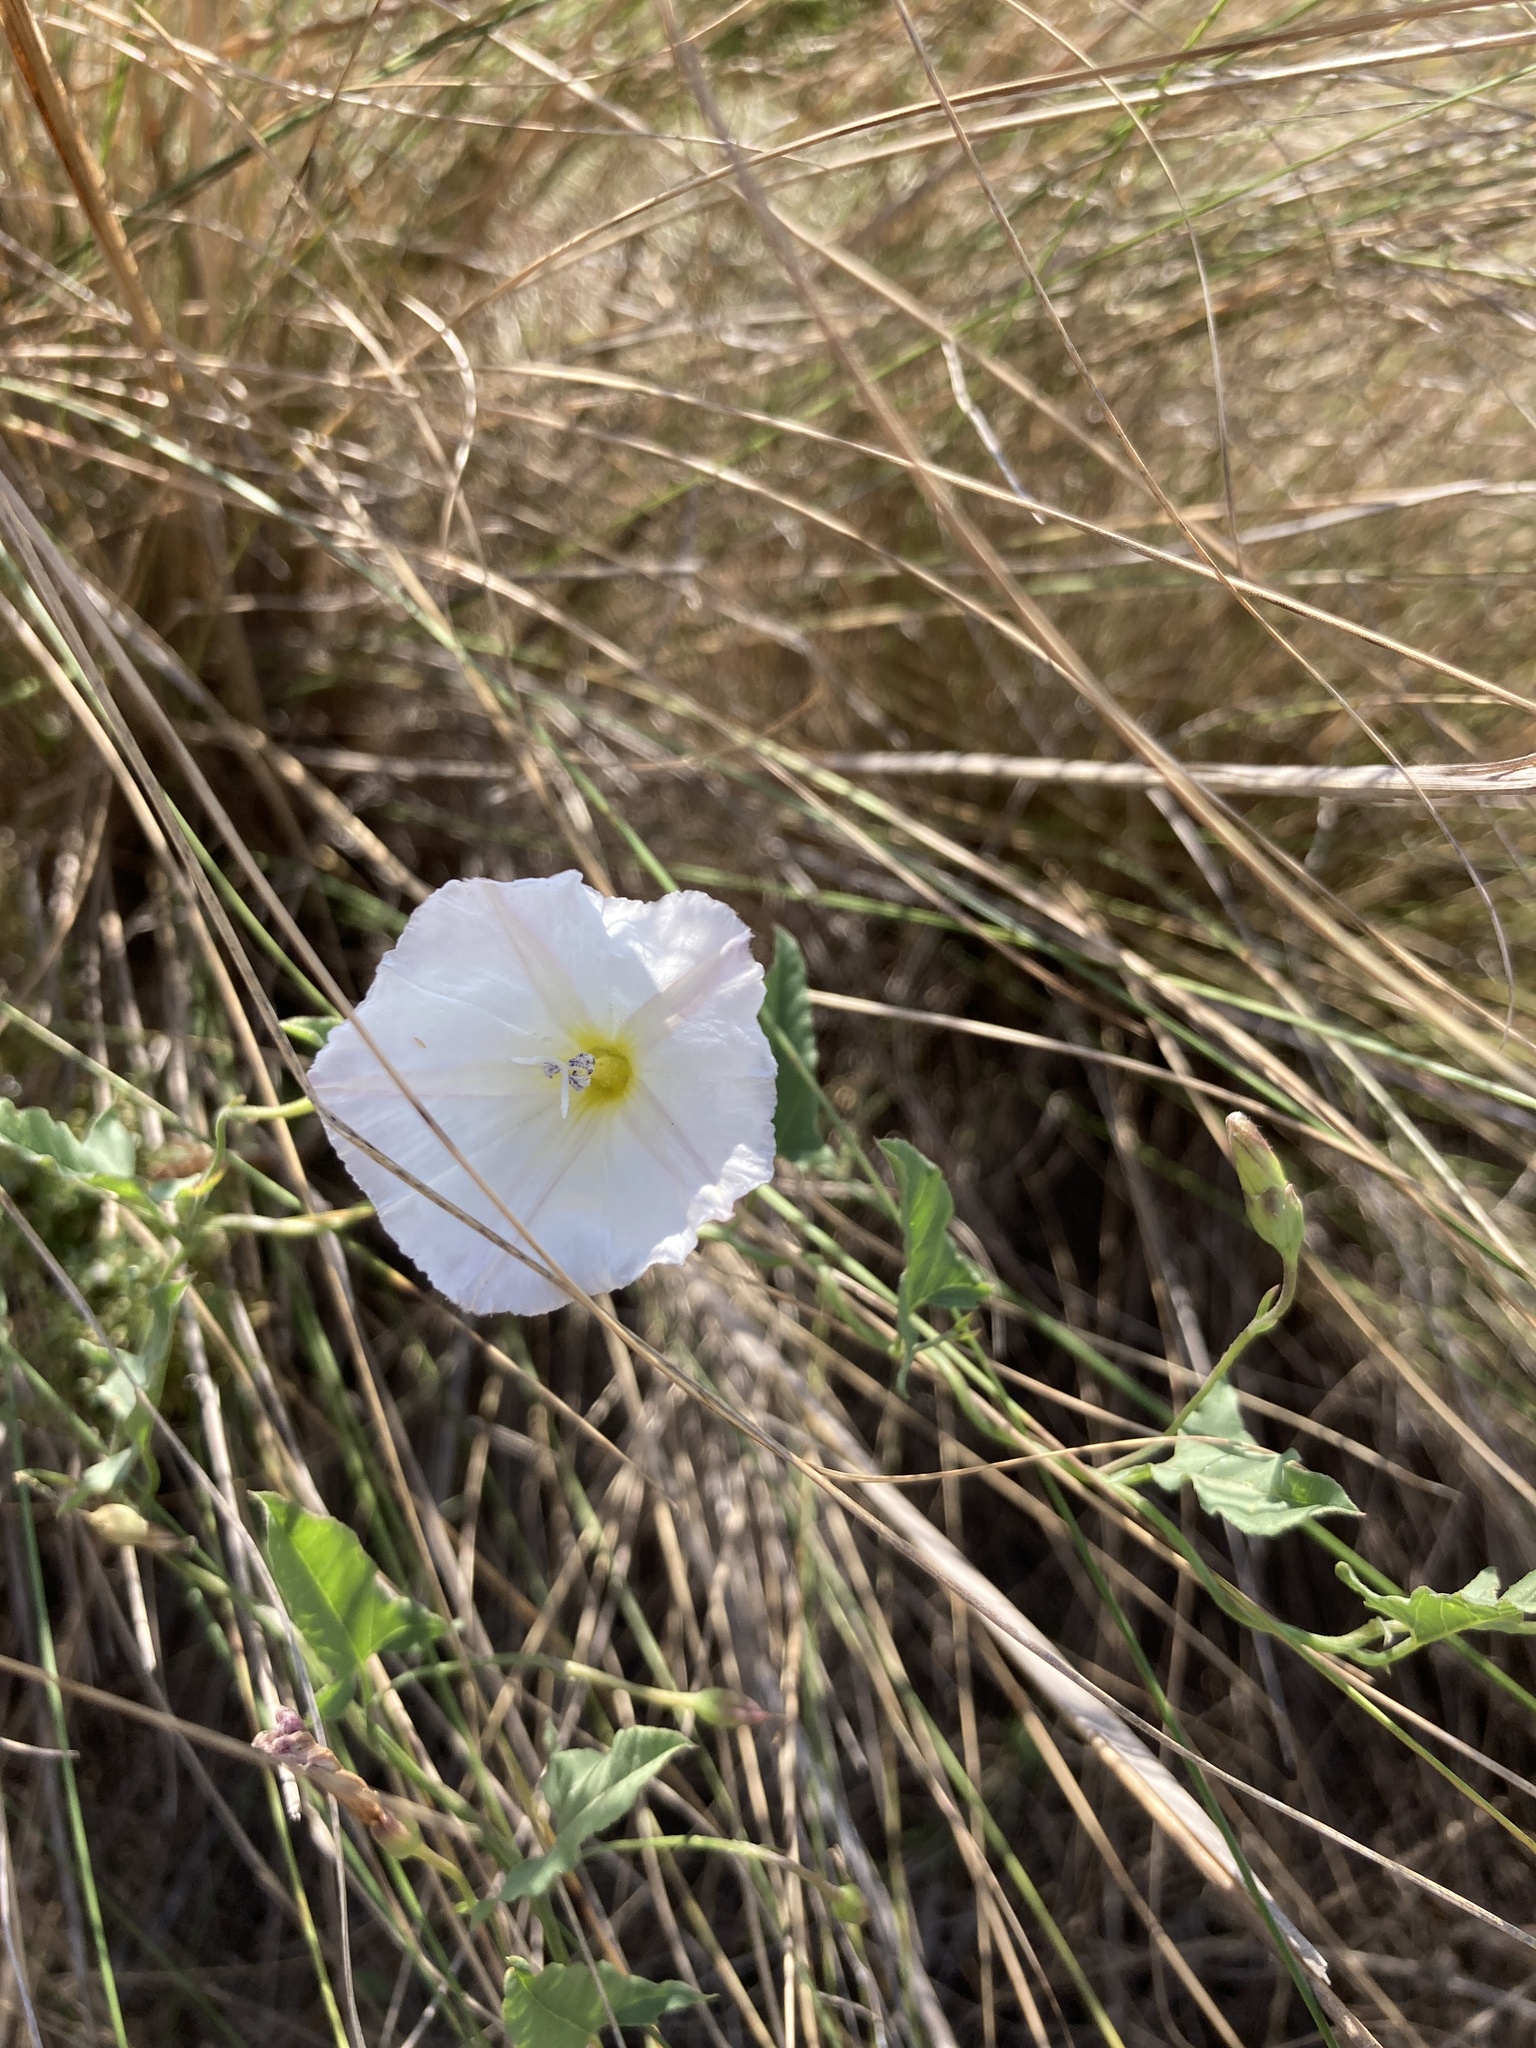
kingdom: Plantae
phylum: Tracheophyta
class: Magnoliopsida
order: Solanales
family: Convolvulaceae
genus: Convolvulus
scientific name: Convolvulus arvensis
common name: Field bindweed
